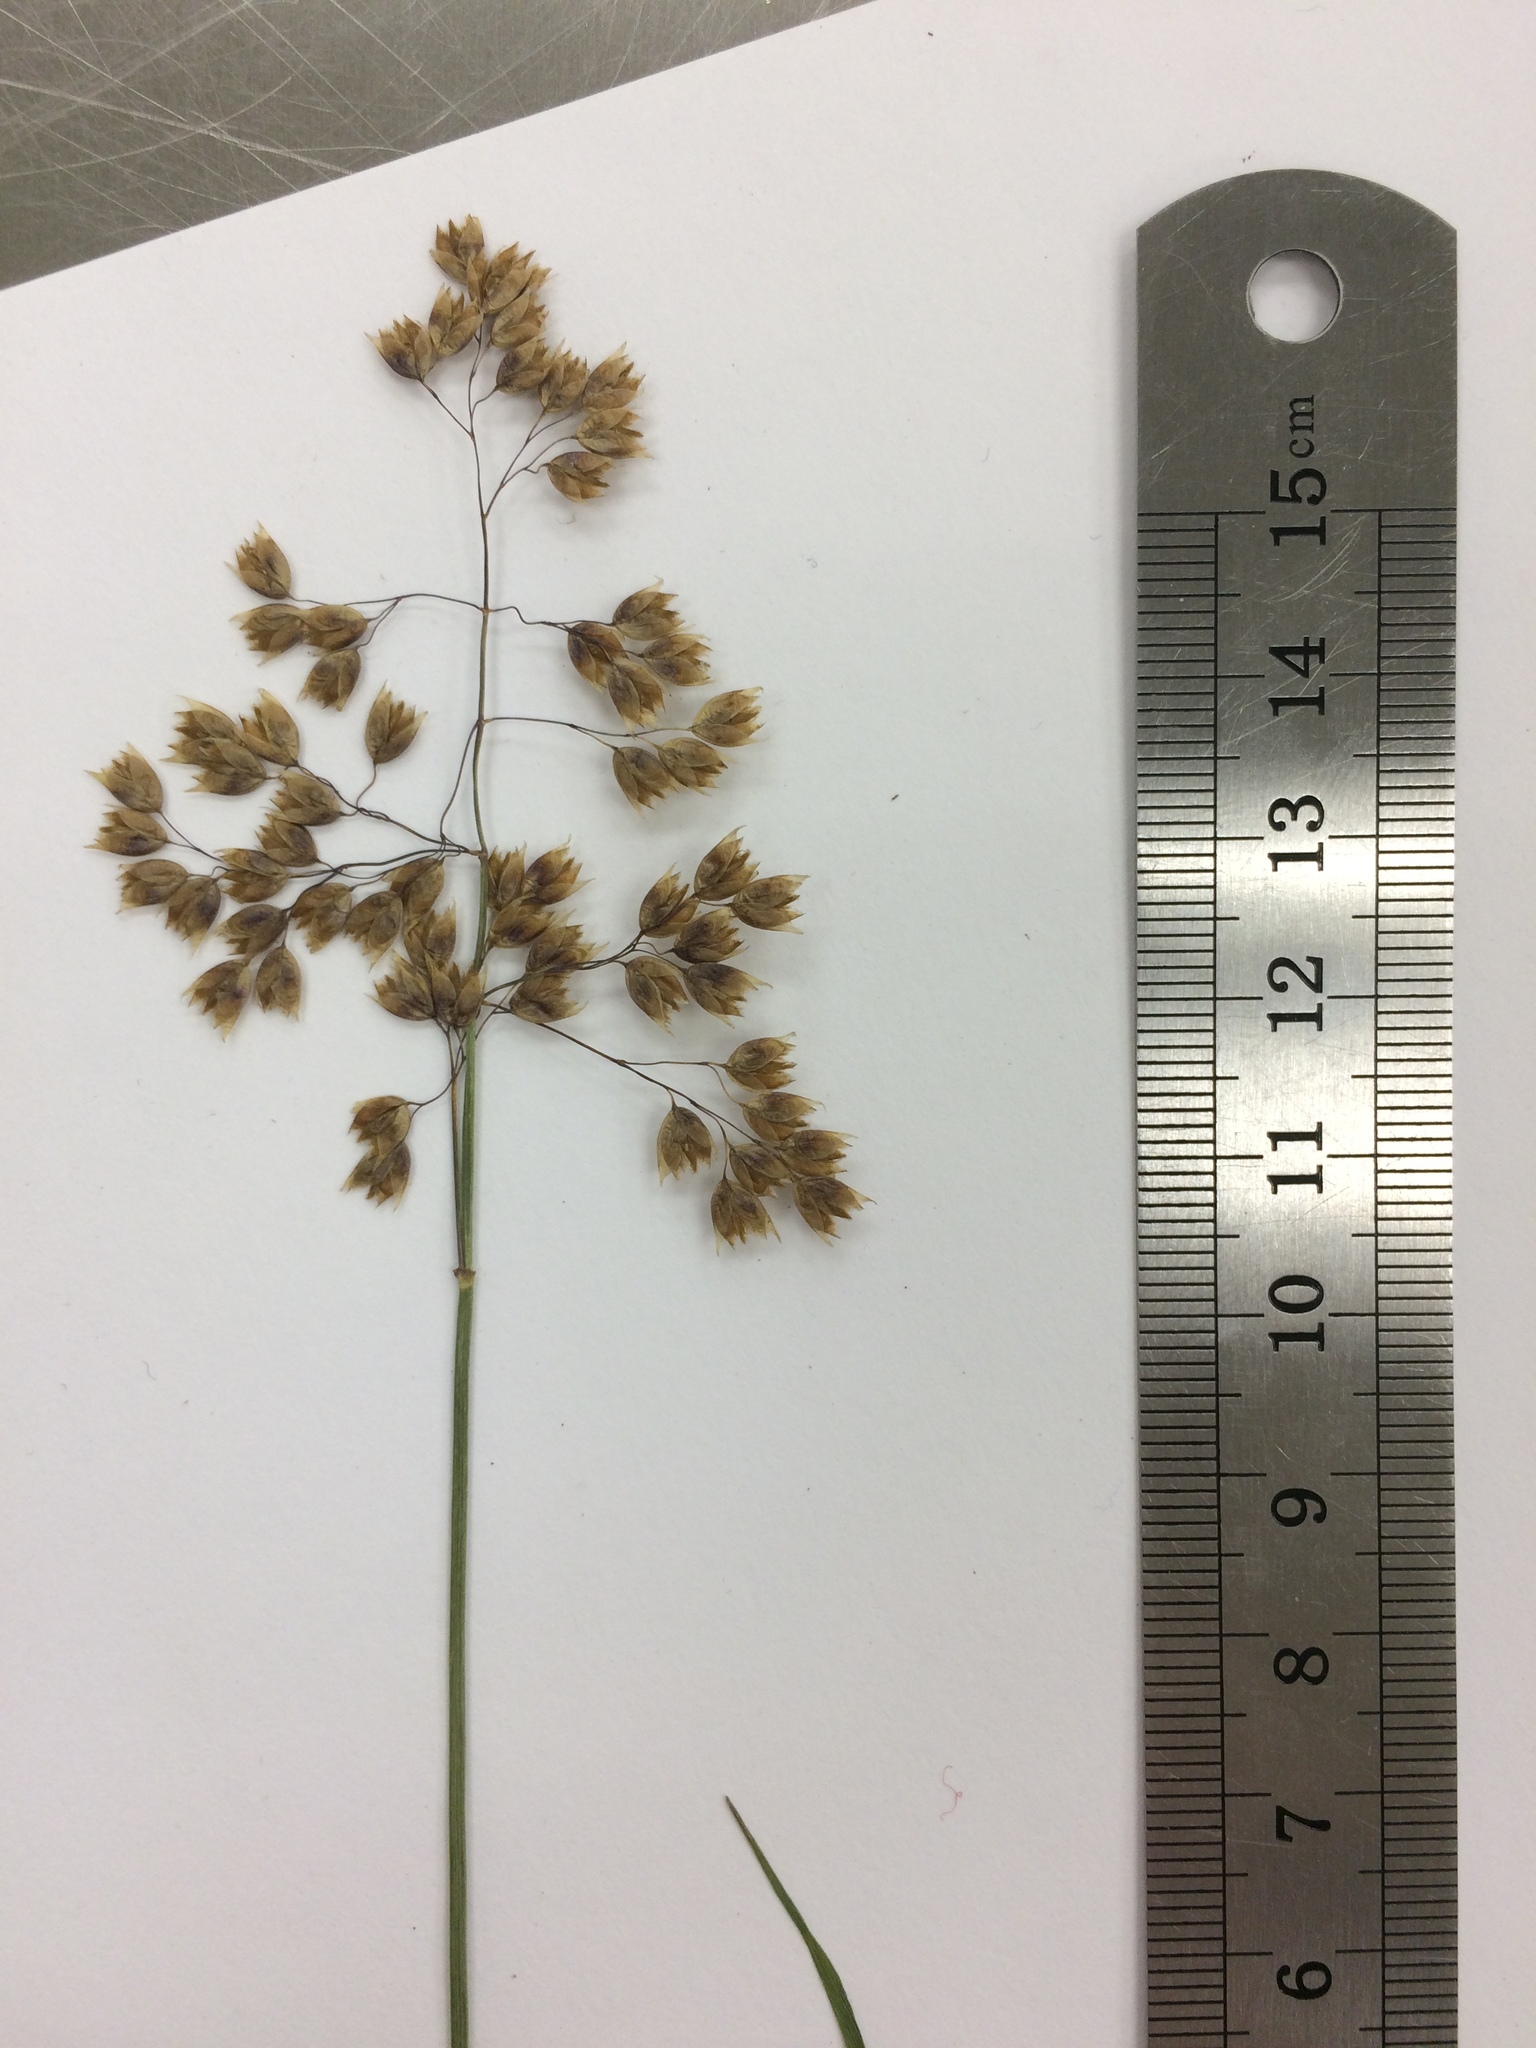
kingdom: Plantae
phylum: Tracheophyta
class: Liliopsida
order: Poales
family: Poaceae
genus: Anthoxanthum
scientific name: Anthoxanthum nitens
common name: Holy grass
